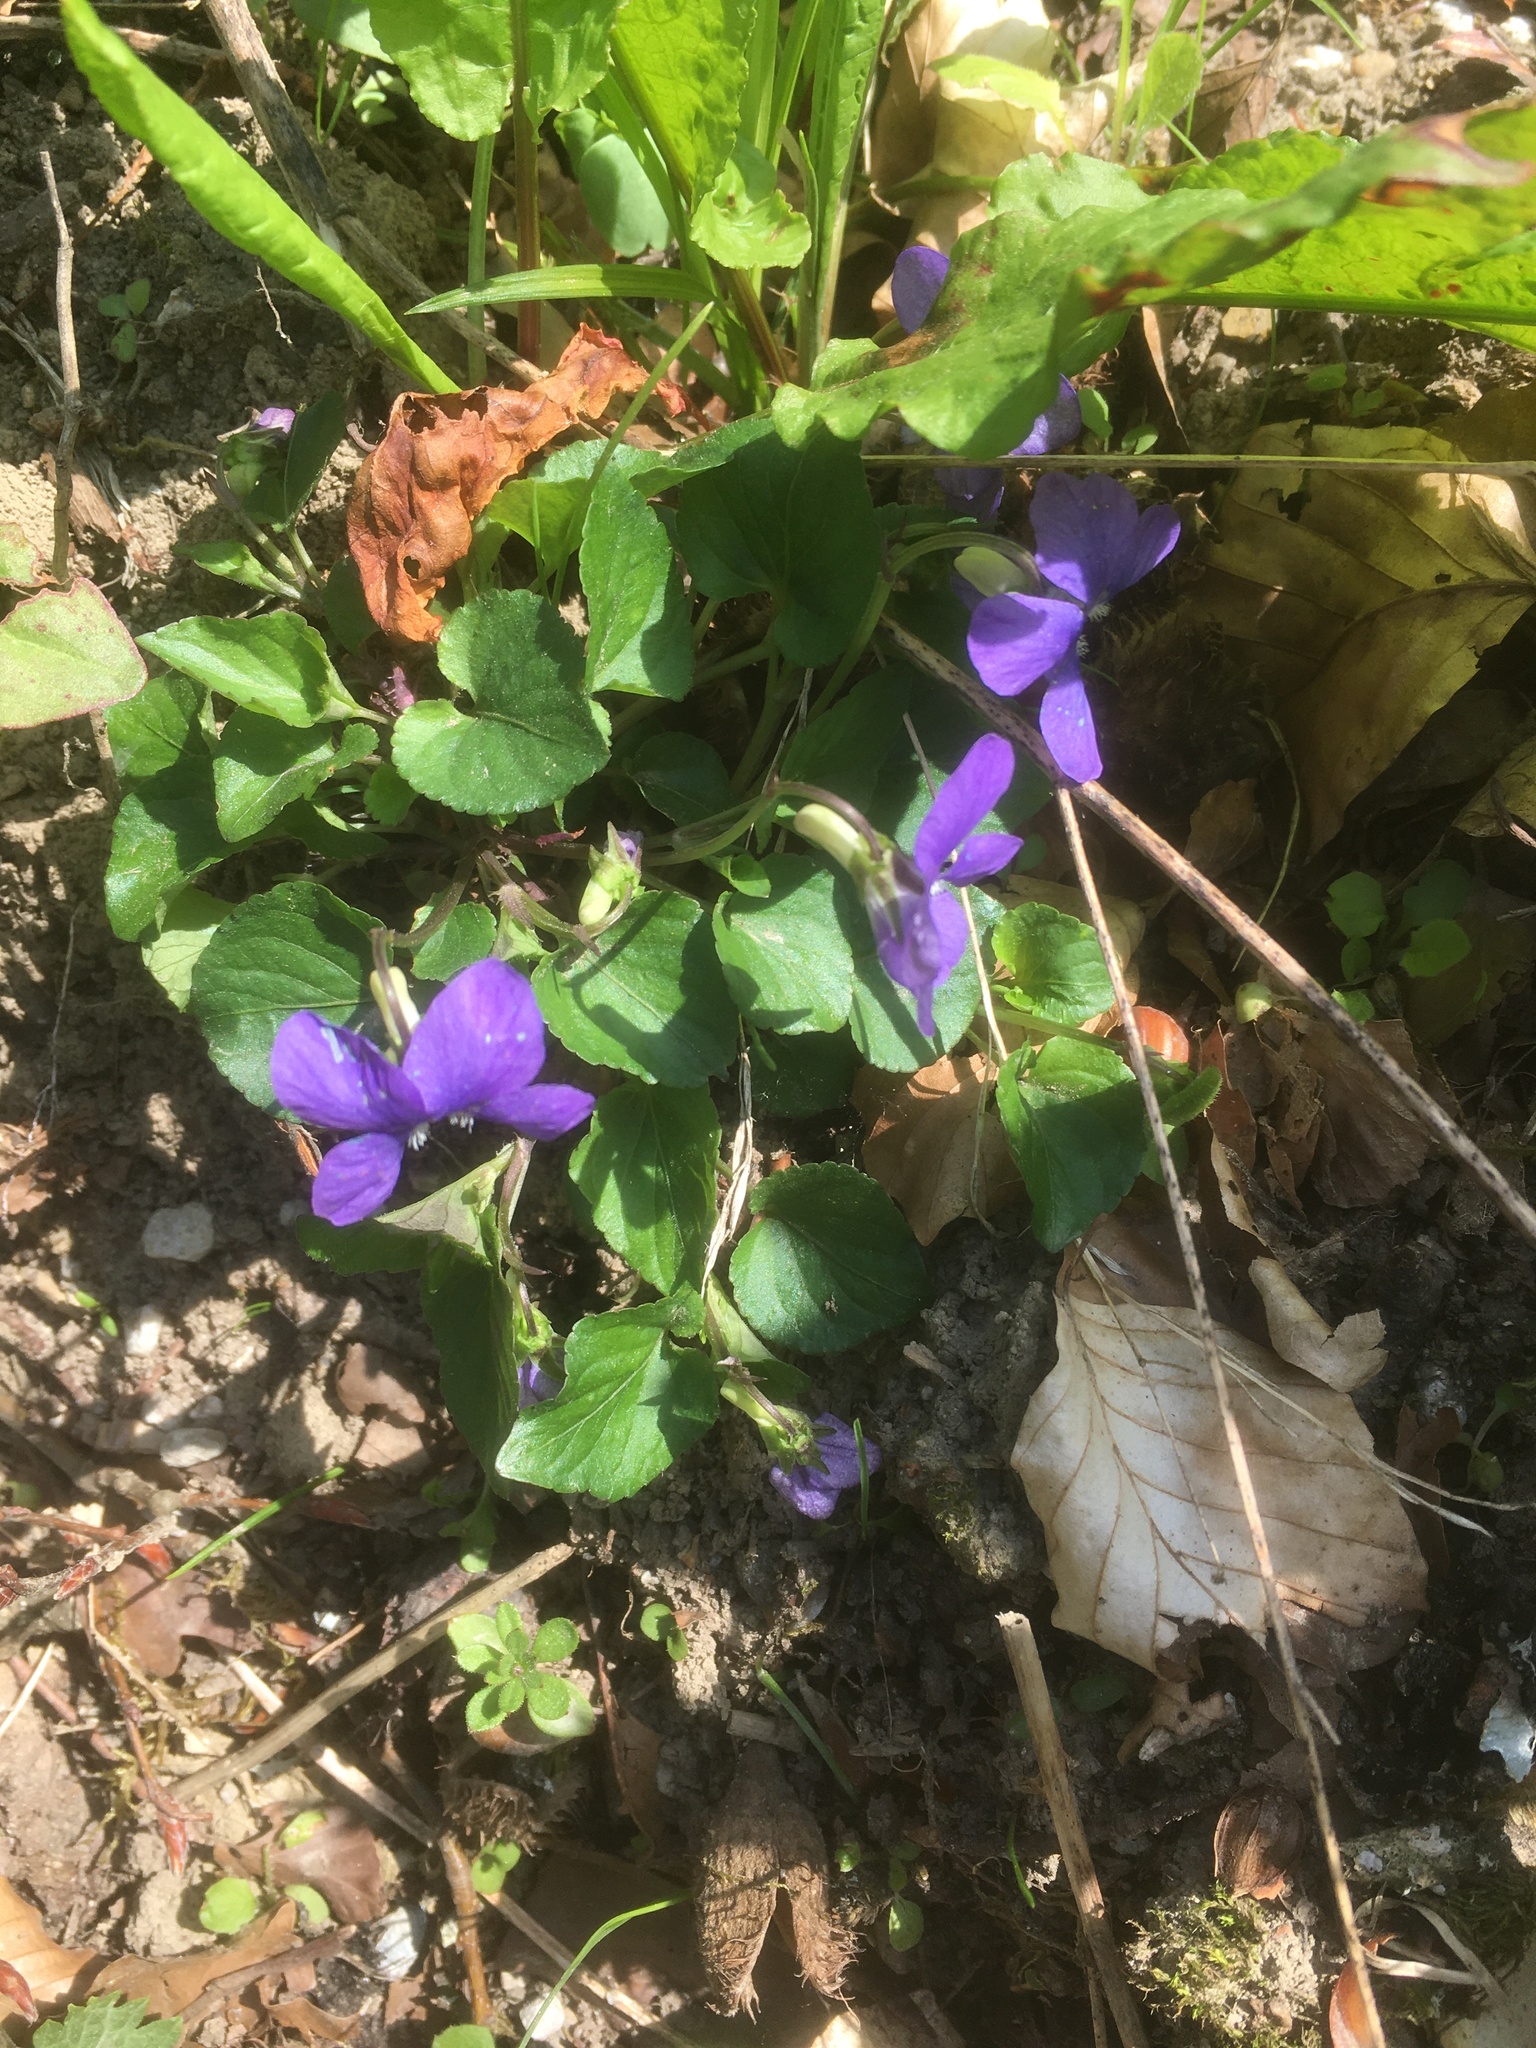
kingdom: Plantae
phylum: Tracheophyta
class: Magnoliopsida
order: Malpighiales
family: Violaceae
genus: Viola
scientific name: Viola riviniana
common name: Common dog-violet
